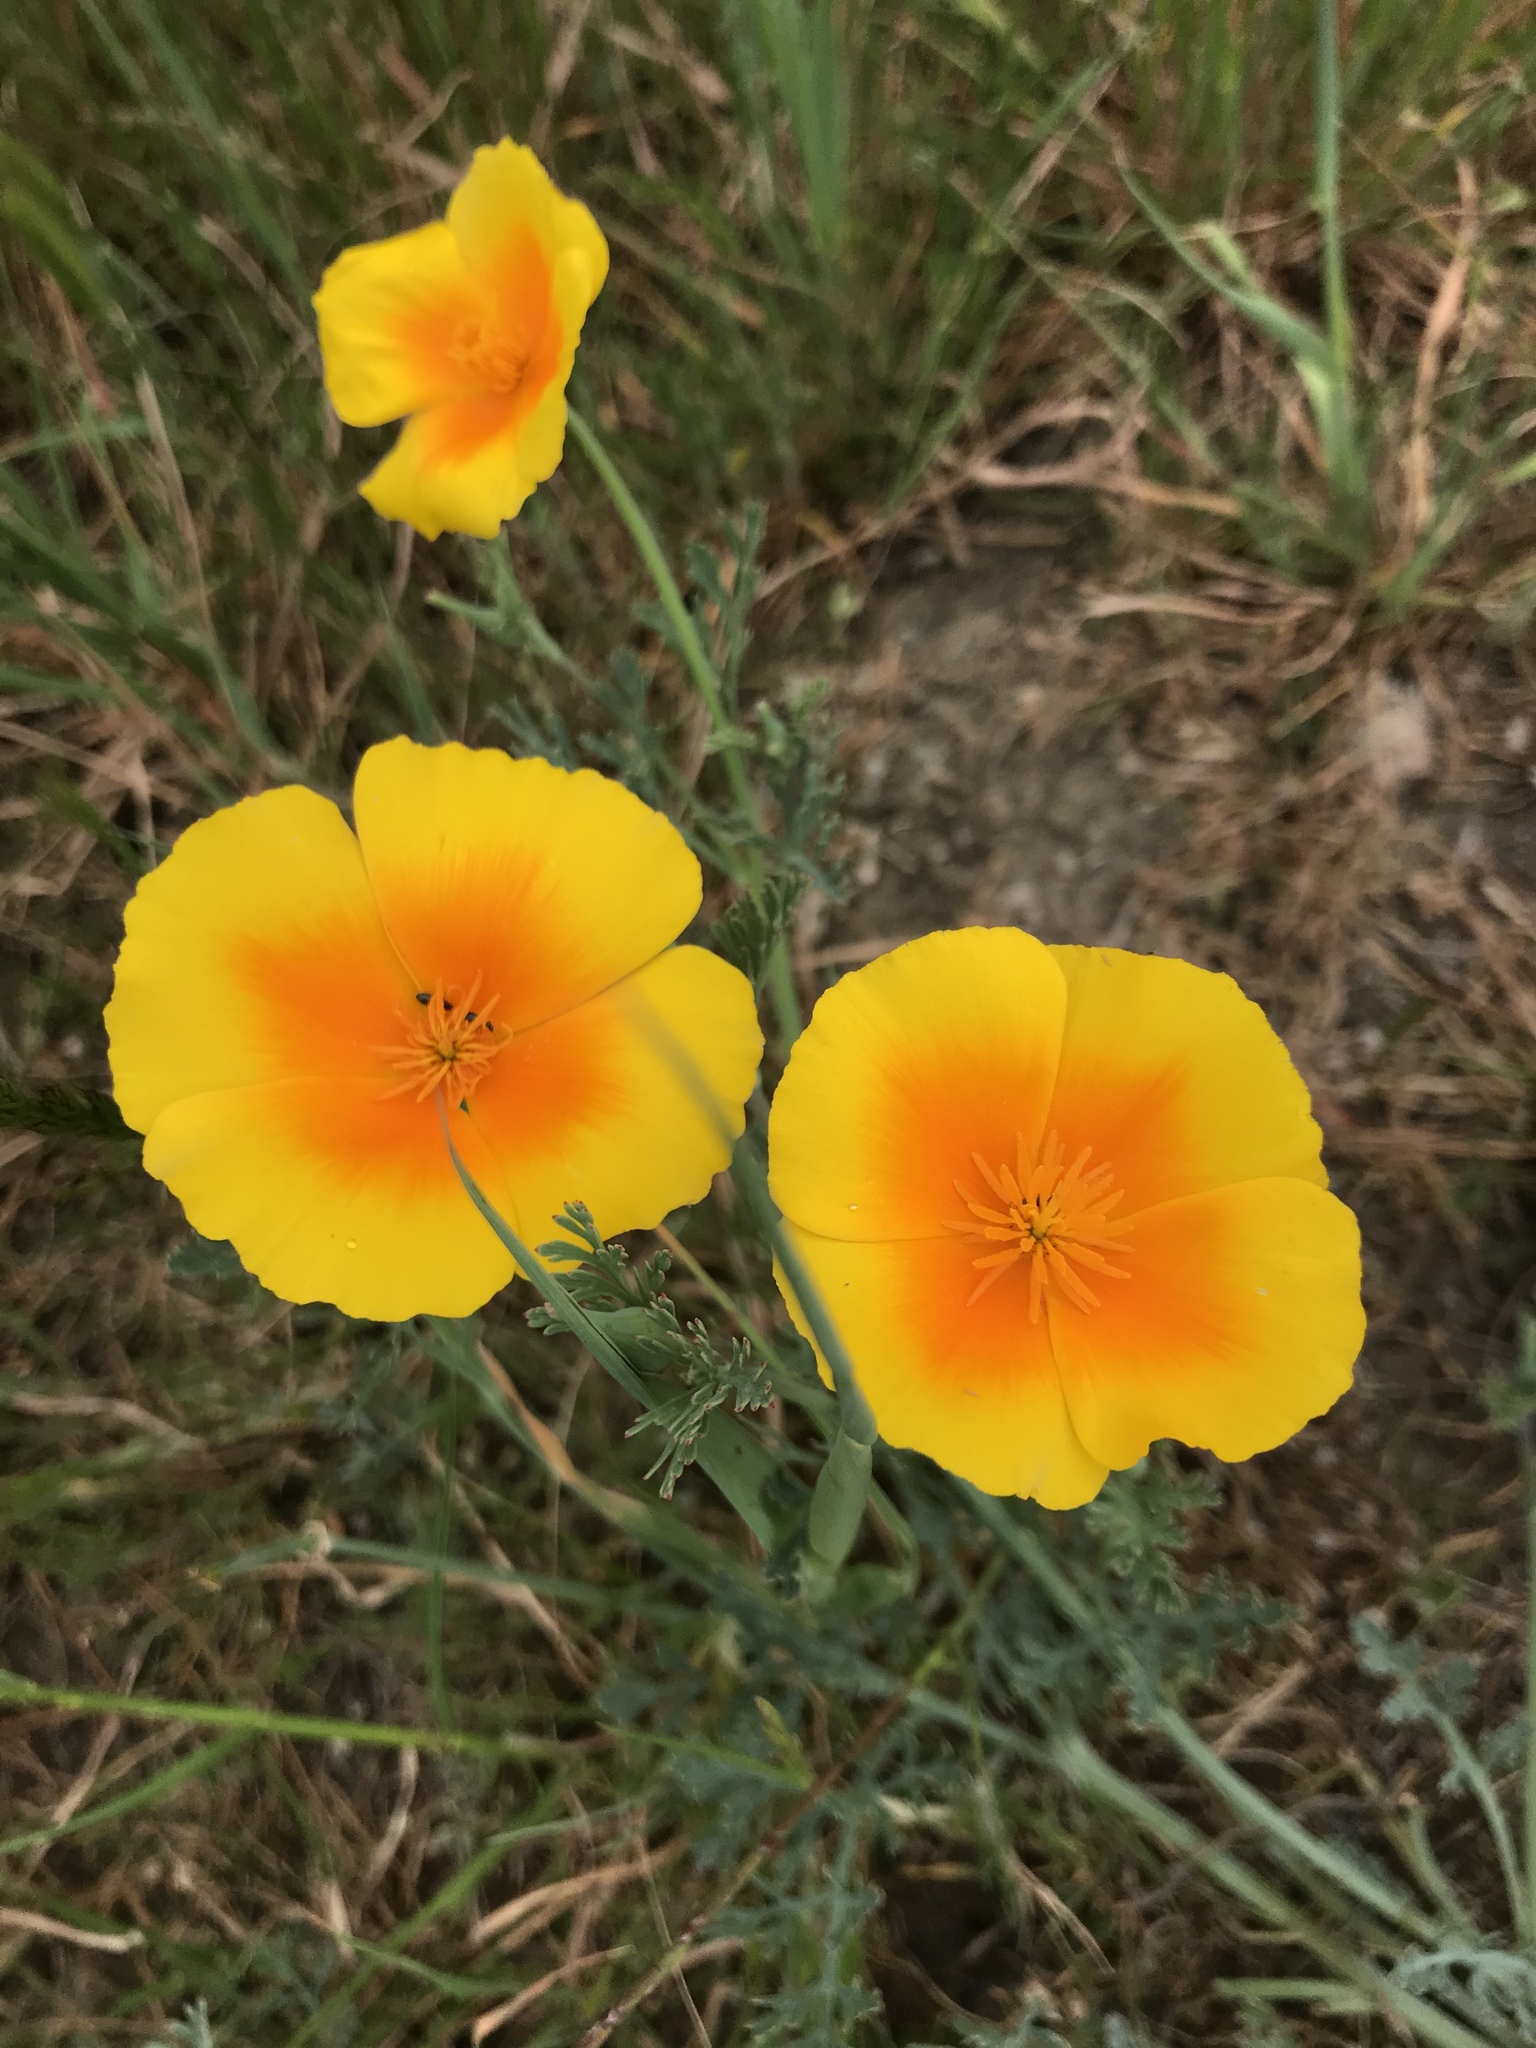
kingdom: Plantae
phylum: Tracheophyta
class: Magnoliopsida
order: Ranunculales
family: Papaveraceae
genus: Eschscholzia
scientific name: Eschscholzia californica
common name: California poppy
